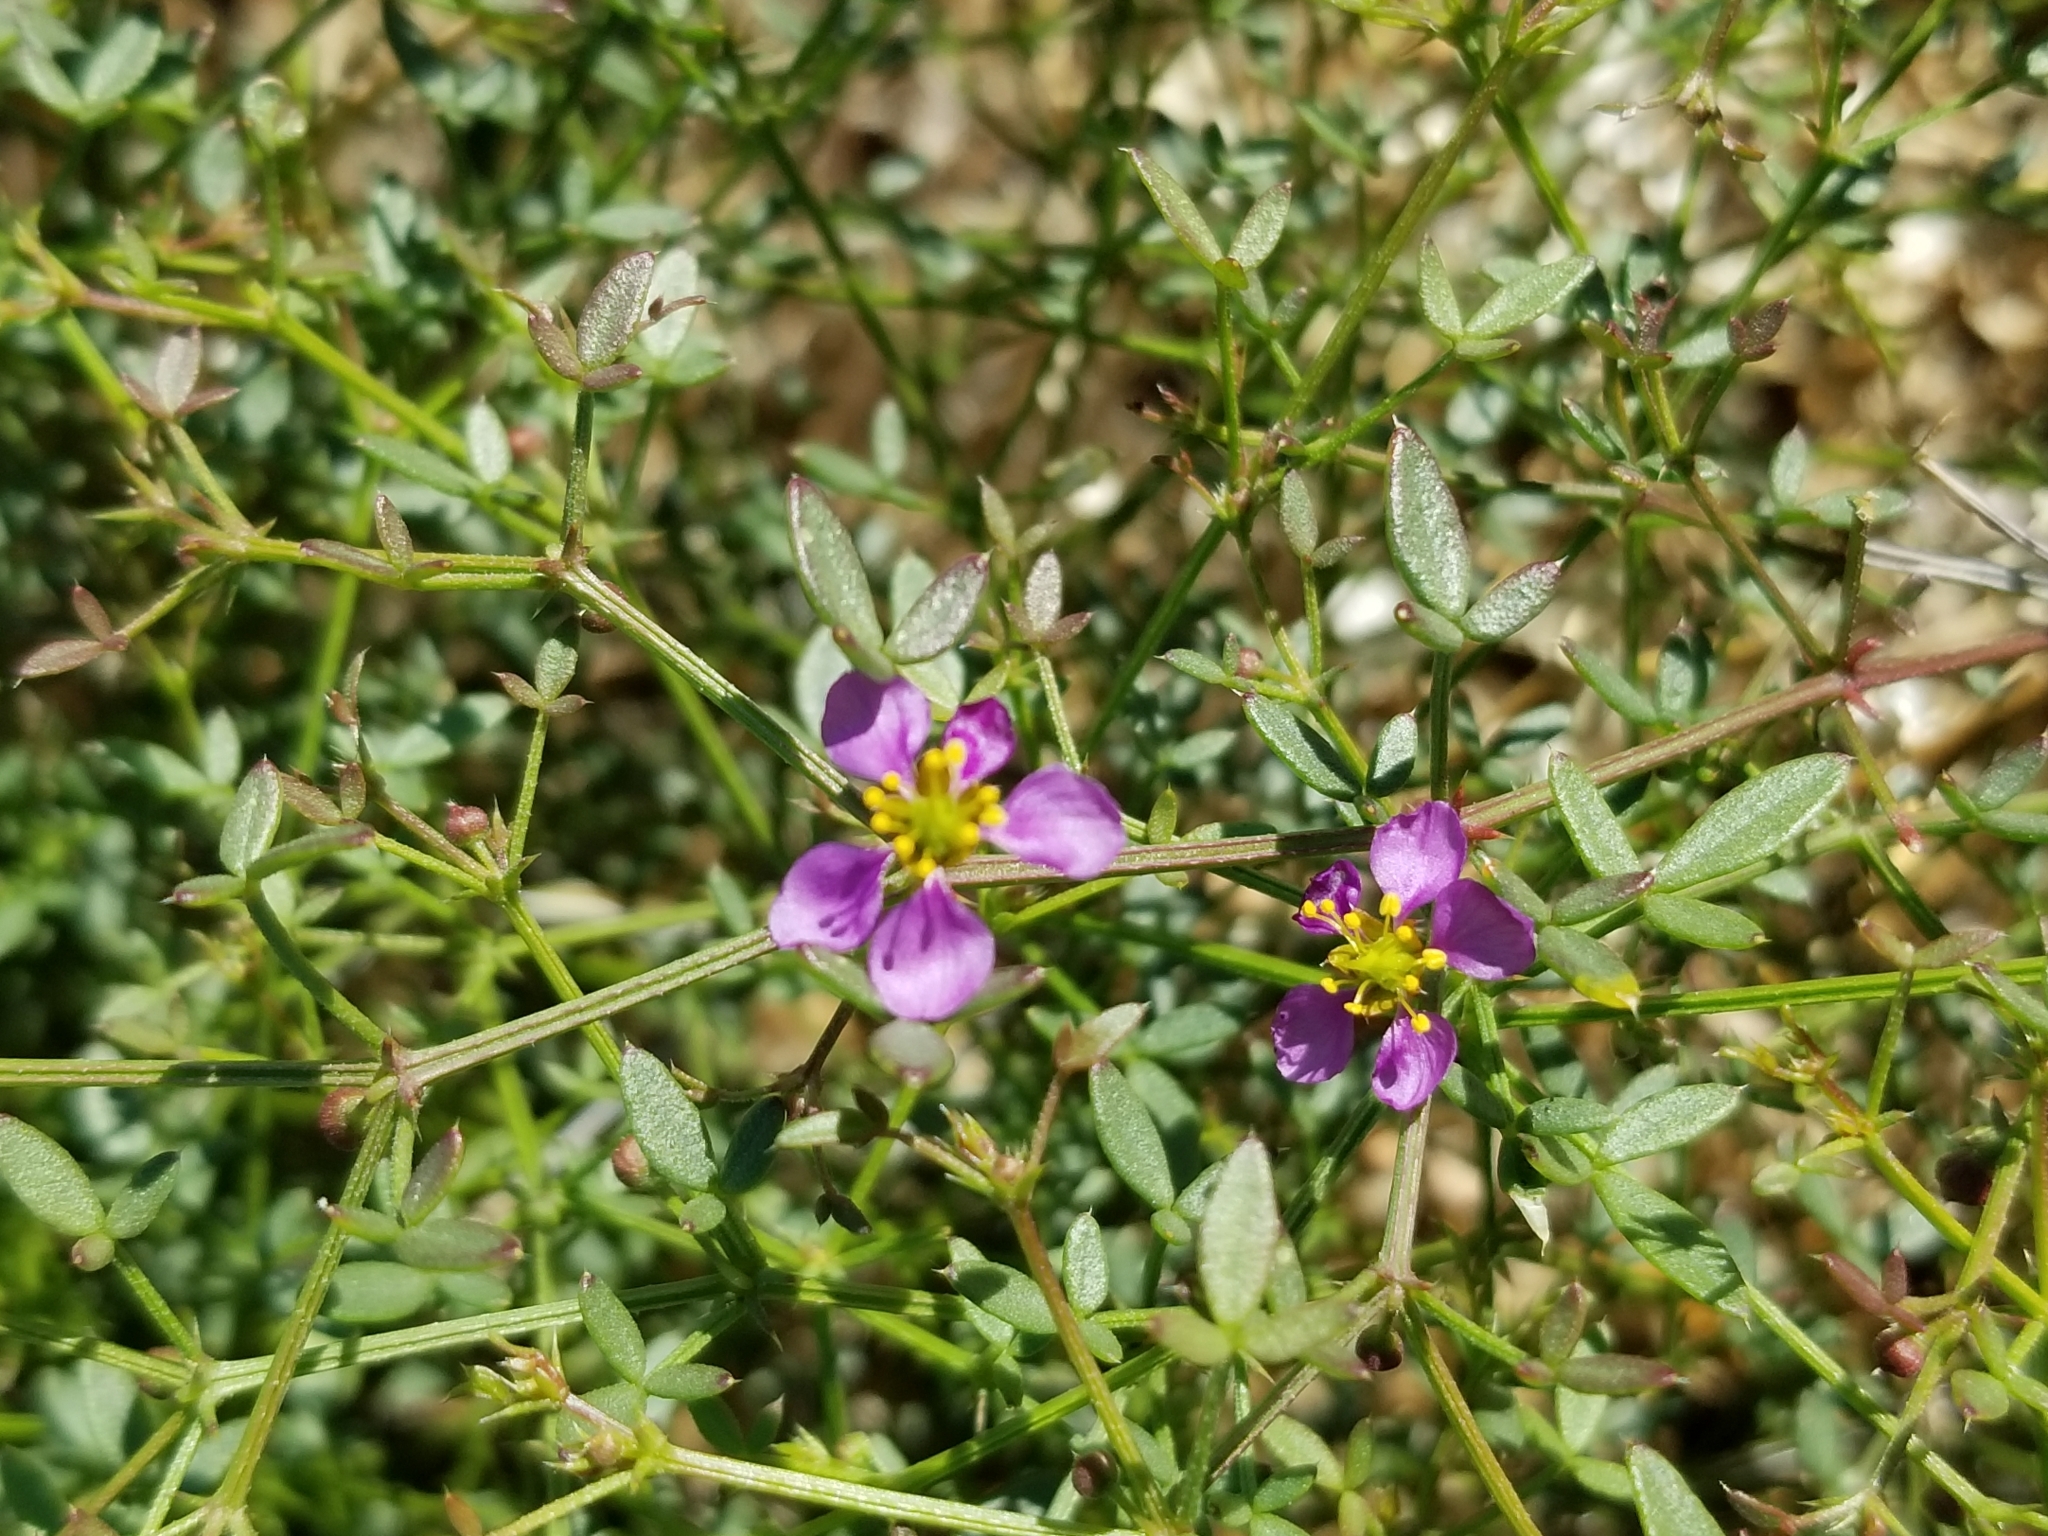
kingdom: Plantae
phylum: Tracheophyta
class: Magnoliopsida
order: Zygophyllales
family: Zygophyllaceae
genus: Fagonia
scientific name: Fagonia laevis
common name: California fagonbush
